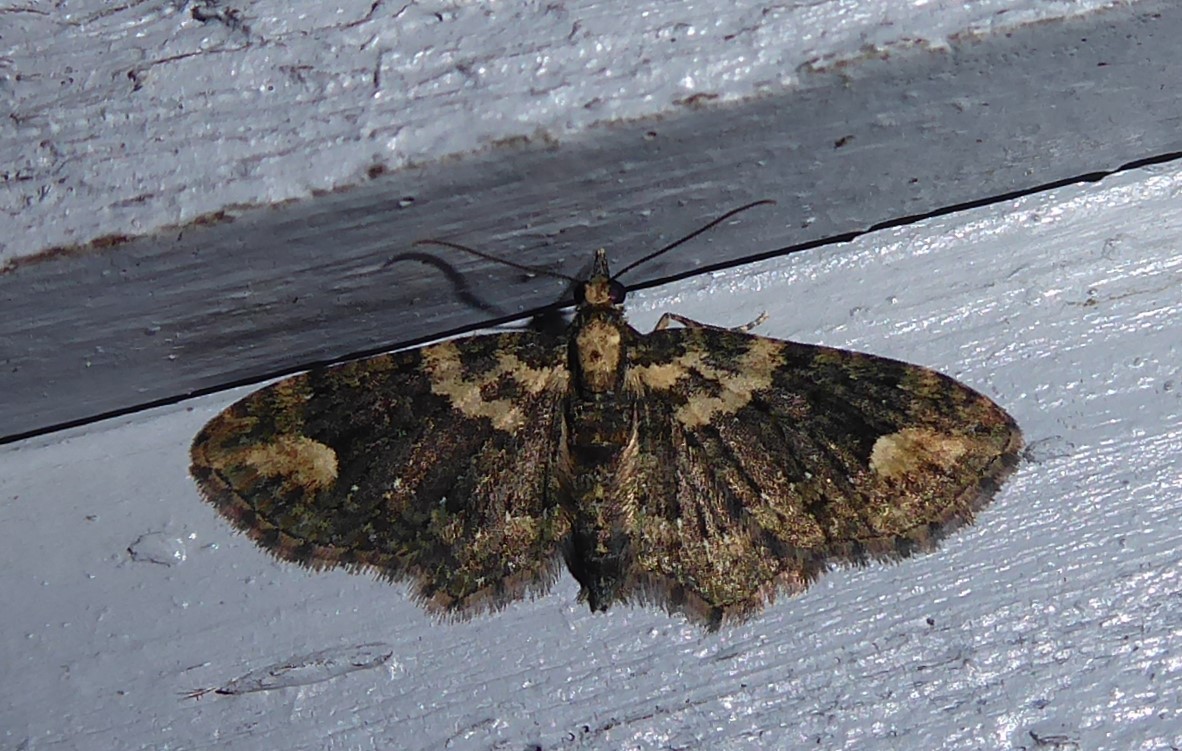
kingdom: Animalia
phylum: Arthropoda
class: Insecta
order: Lepidoptera
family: Geometridae
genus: Pasiphilodes
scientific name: Pasiphilodes testulata
